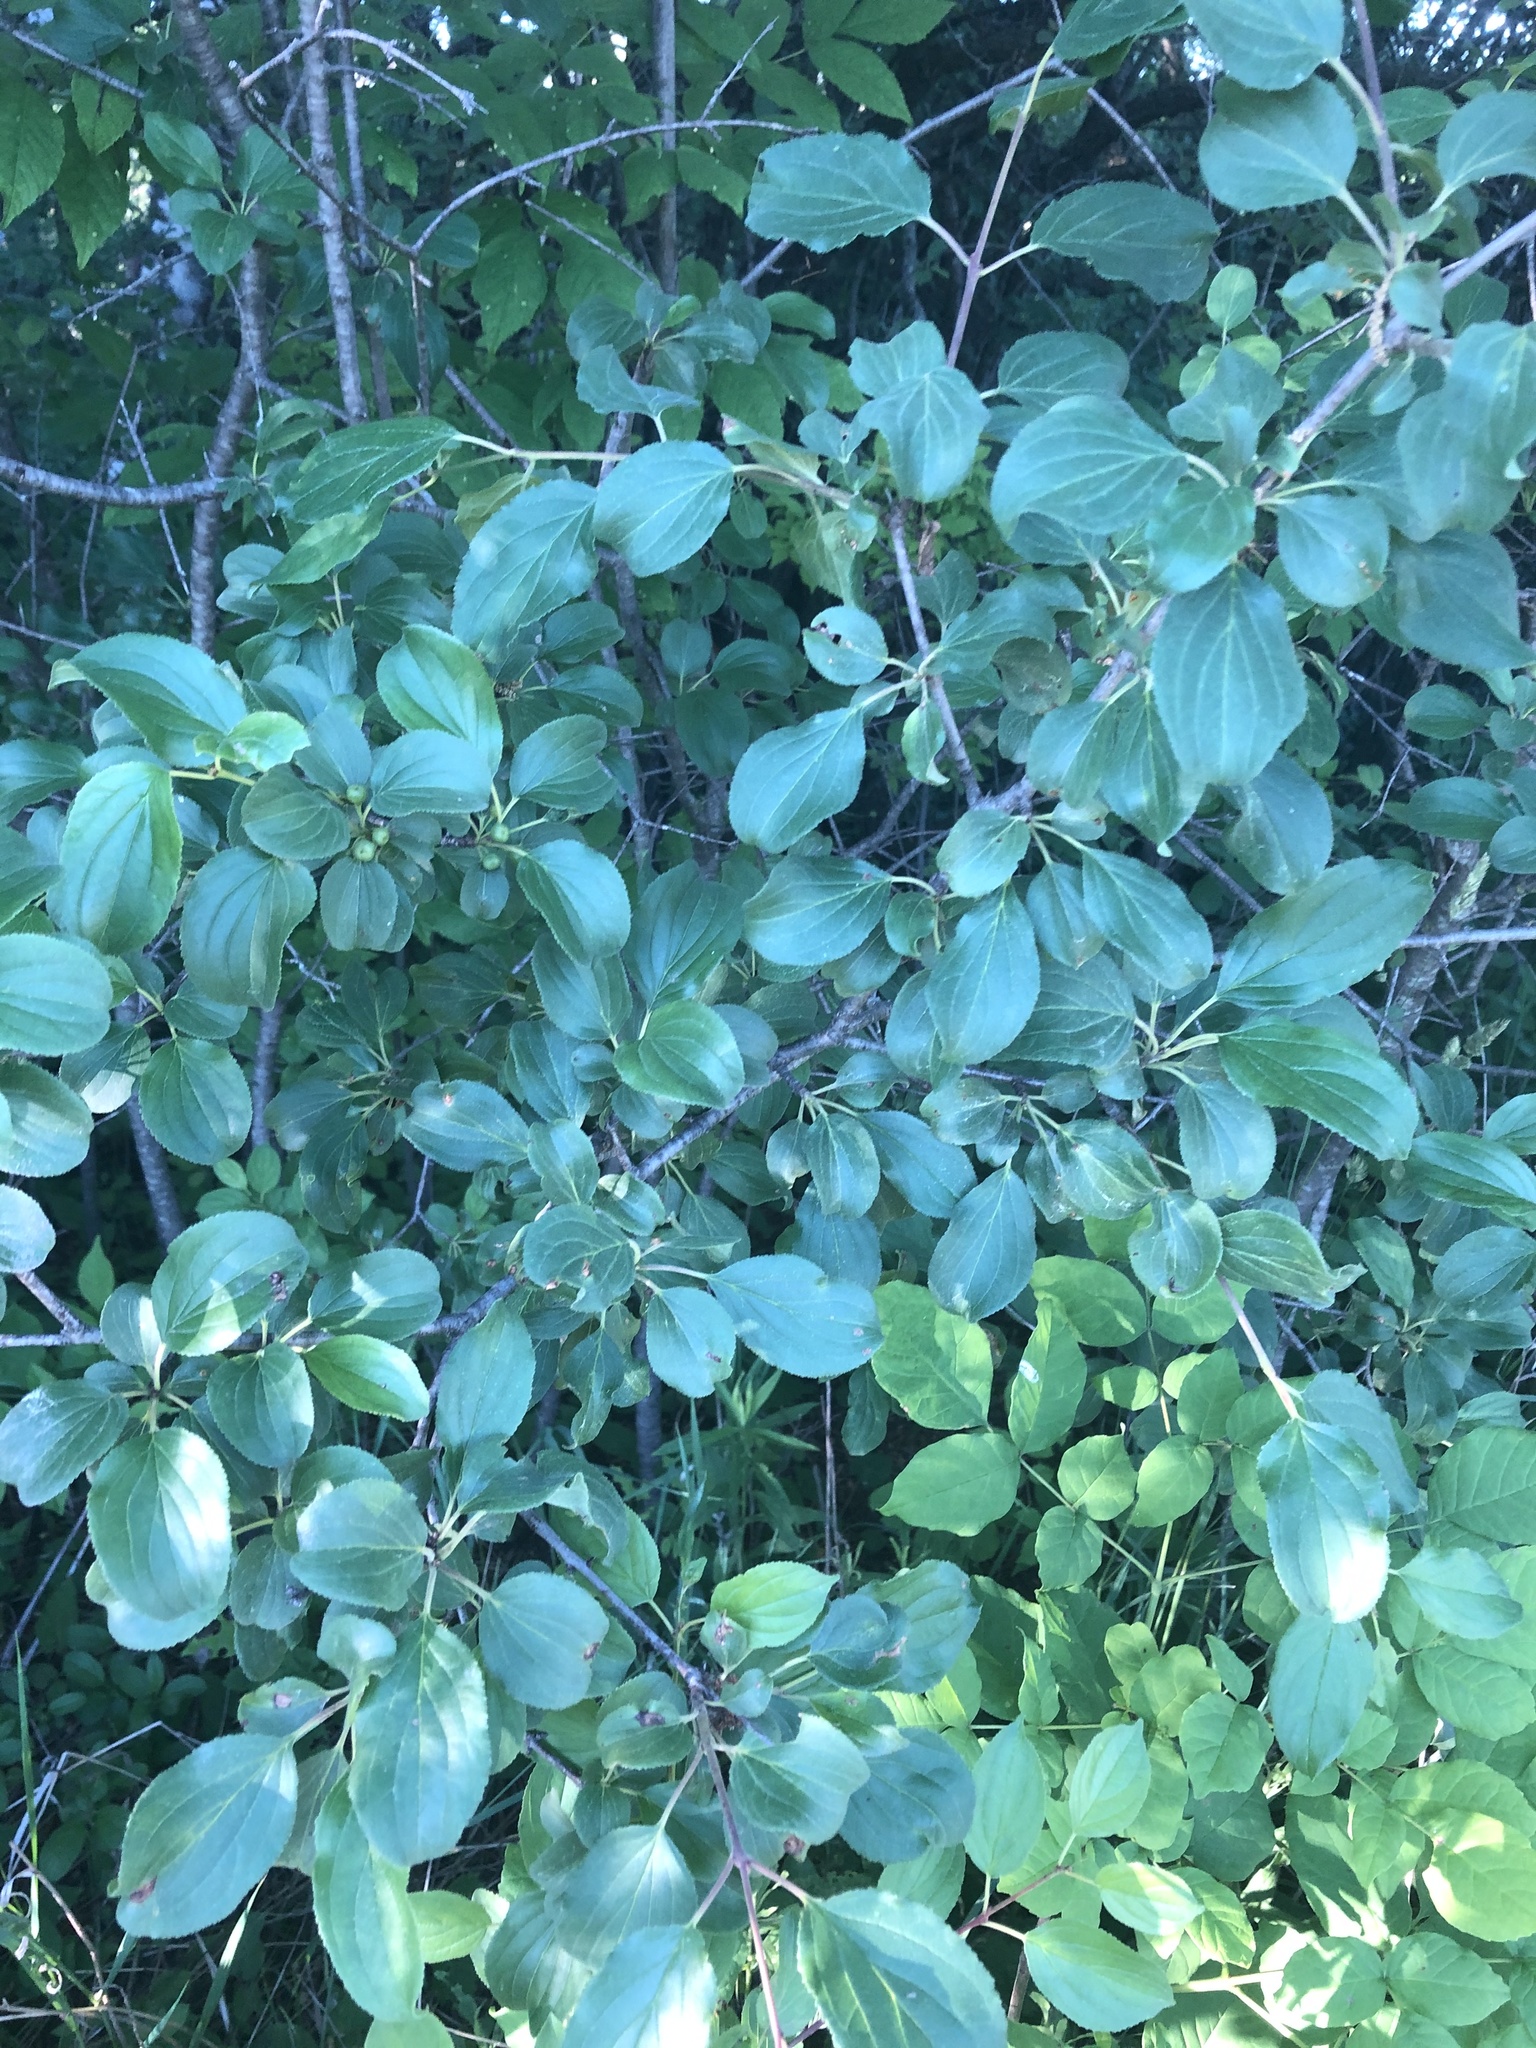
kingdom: Plantae
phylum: Tracheophyta
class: Magnoliopsida
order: Rosales
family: Rhamnaceae
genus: Rhamnus
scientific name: Rhamnus cathartica
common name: Common buckthorn
